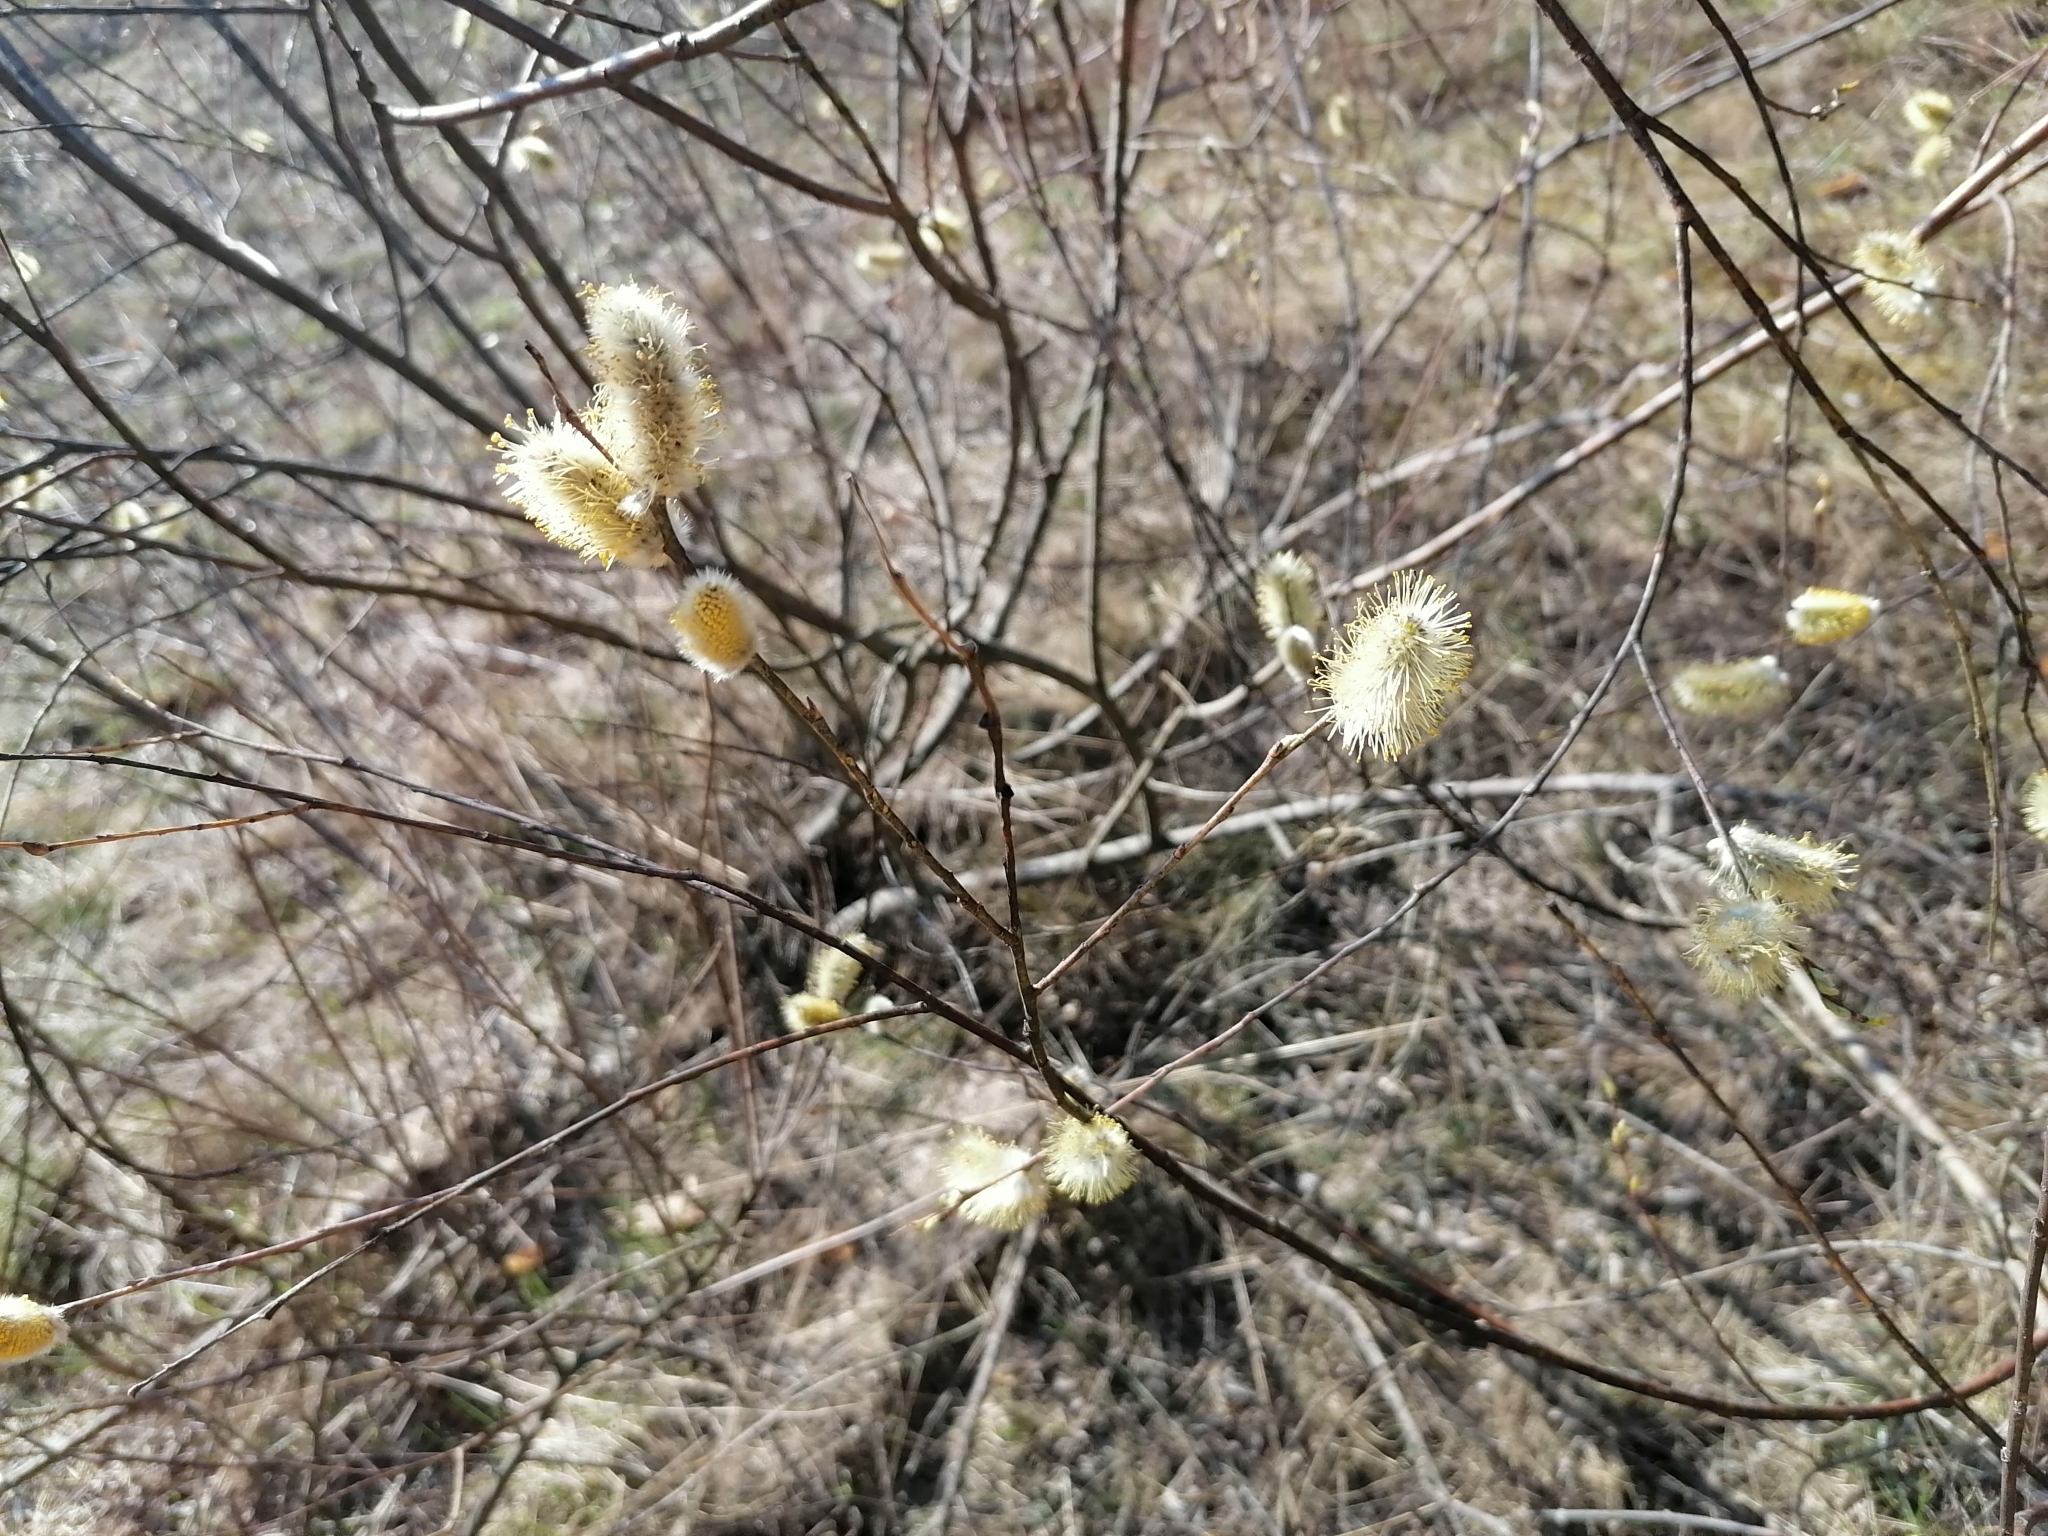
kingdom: Plantae
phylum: Tracheophyta
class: Magnoliopsida
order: Malpighiales
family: Salicaceae
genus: Salix
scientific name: Salix cinerea
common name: Common sallow
